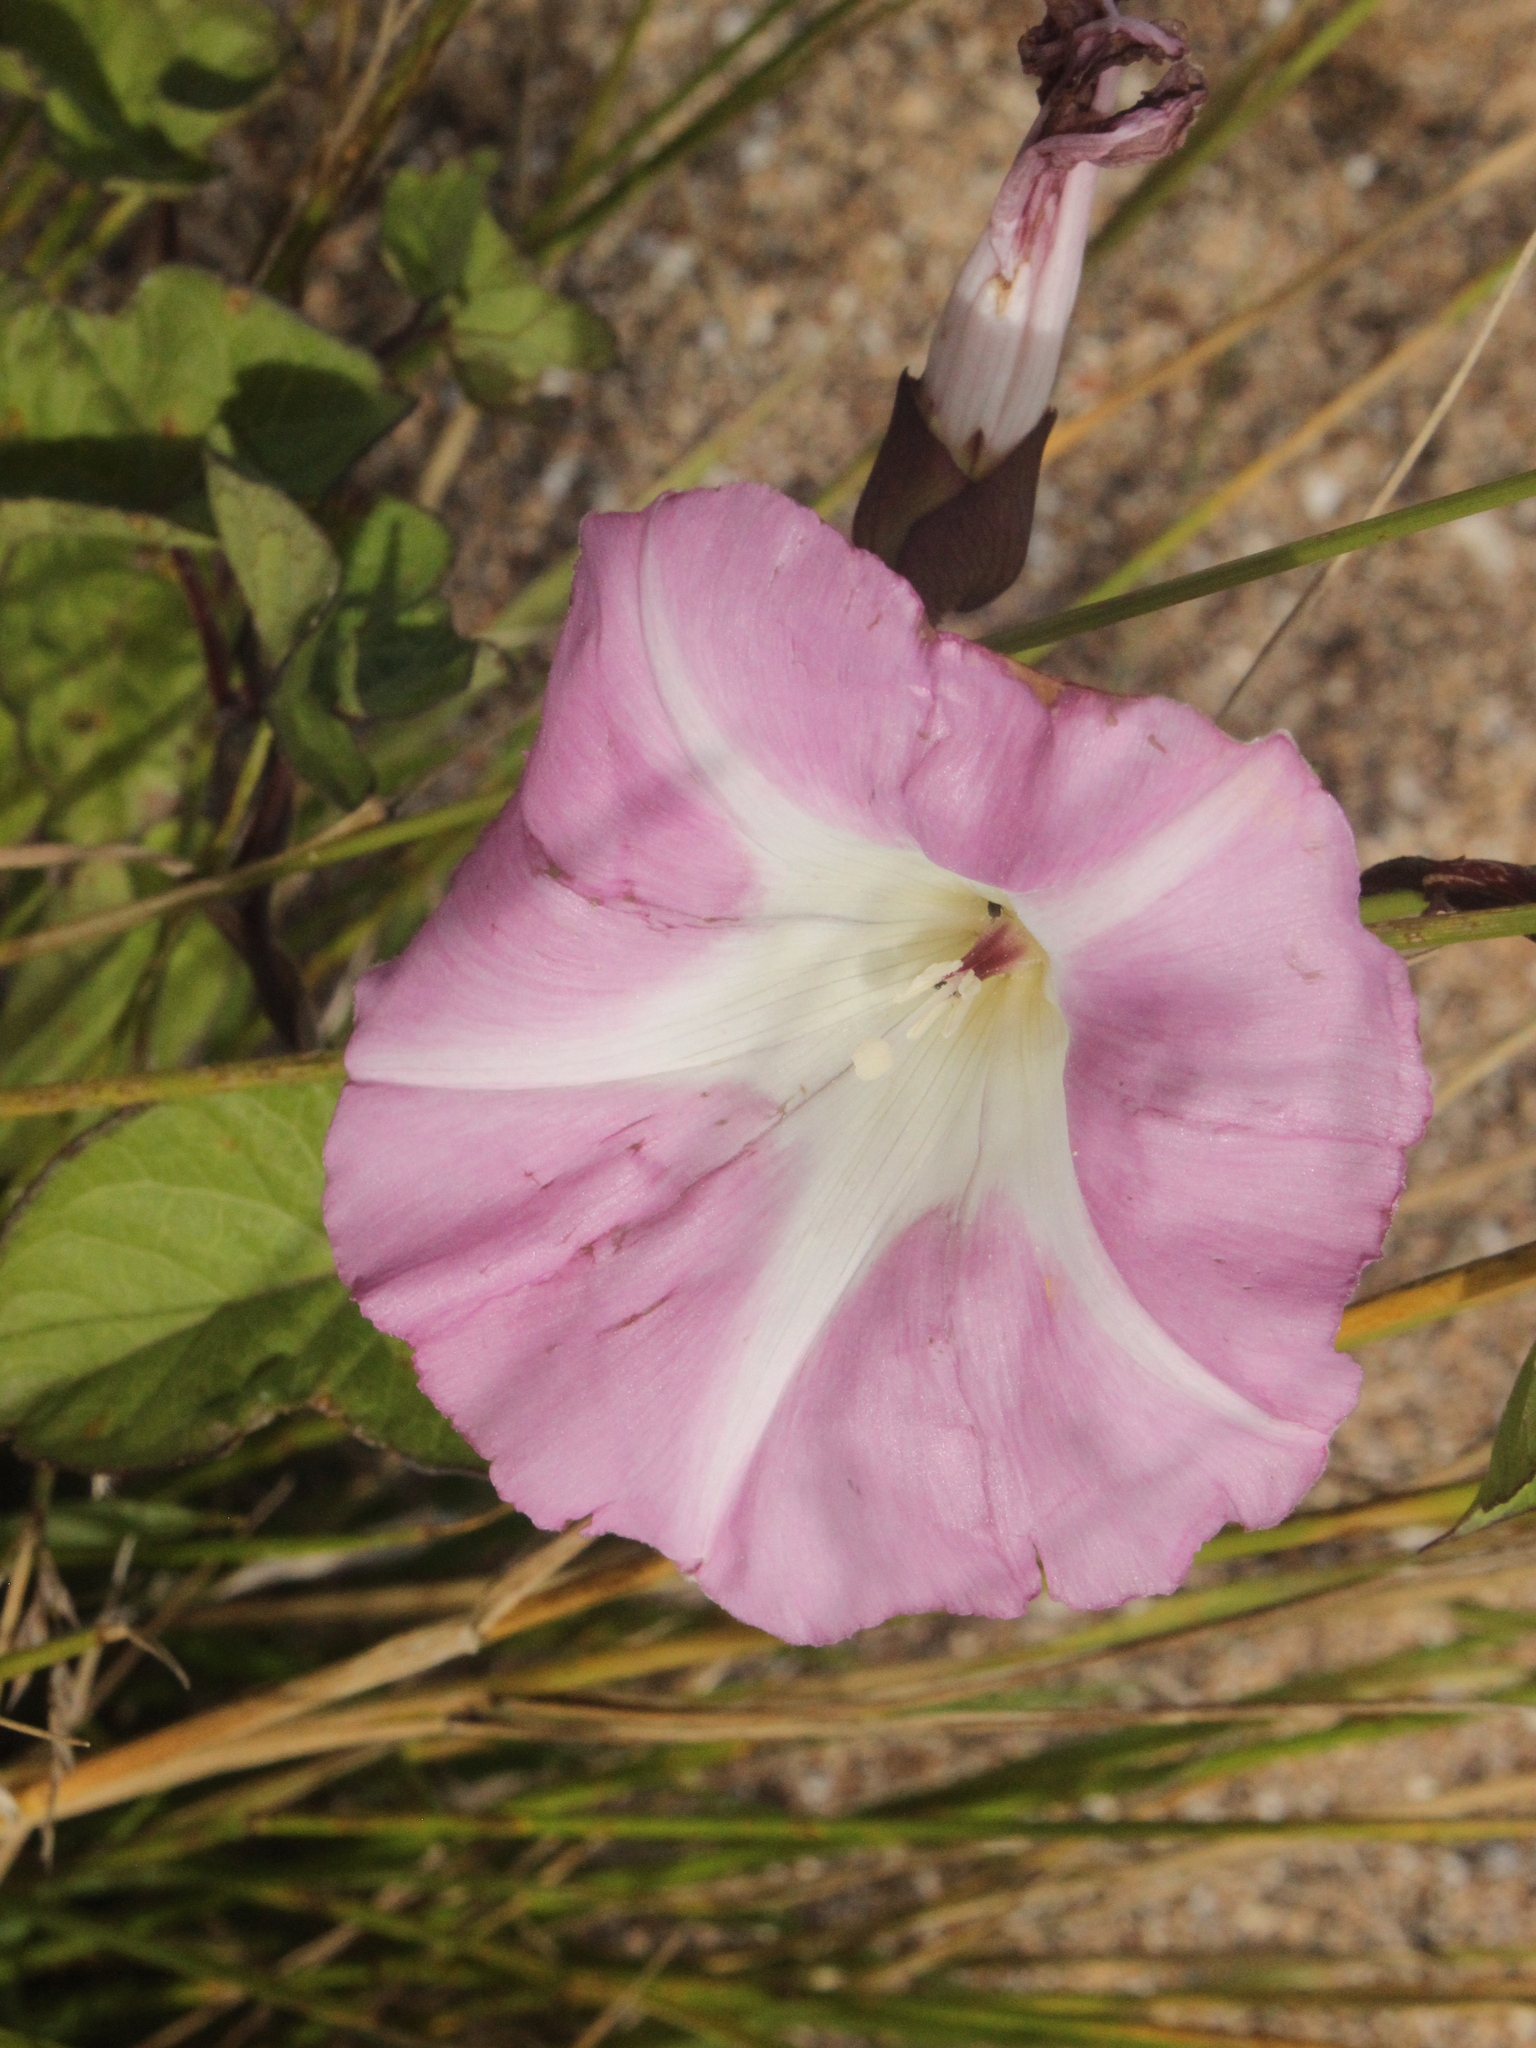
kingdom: Plantae
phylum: Tracheophyta
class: Magnoliopsida
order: Solanales
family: Convolvulaceae
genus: Calystegia
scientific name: Calystegia sepium
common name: Hedge bindweed
